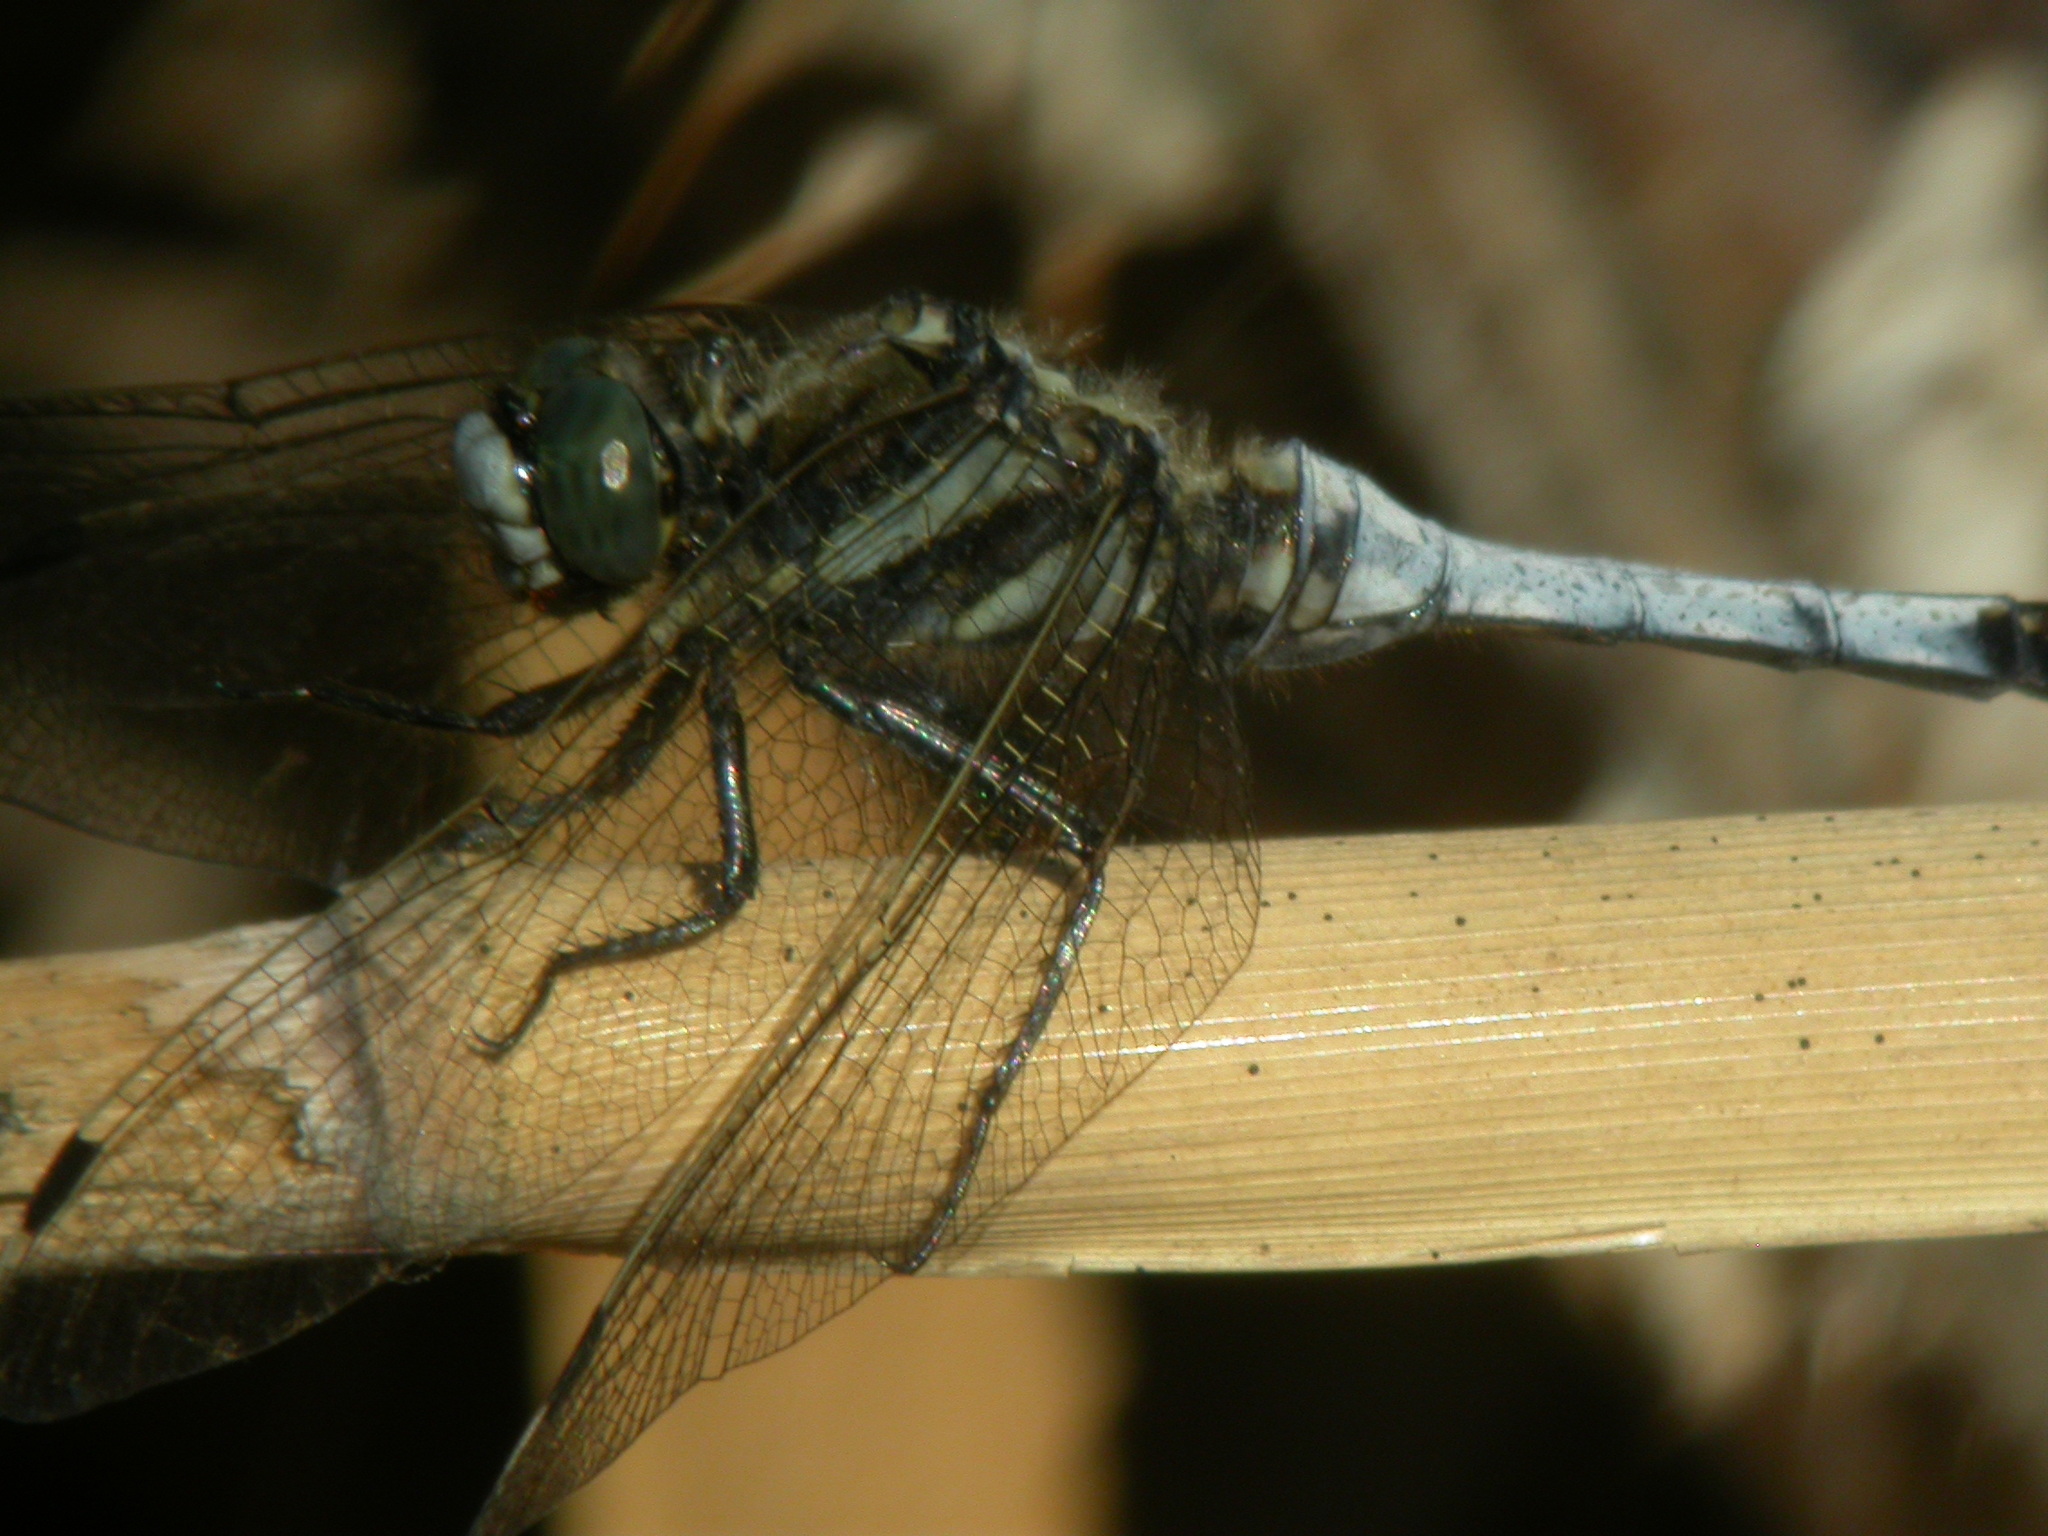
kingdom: Animalia
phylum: Arthropoda
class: Insecta
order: Odonata
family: Libellulidae
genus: Orthetrum
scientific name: Orthetrum albistylum
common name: White-tailed skimmer
